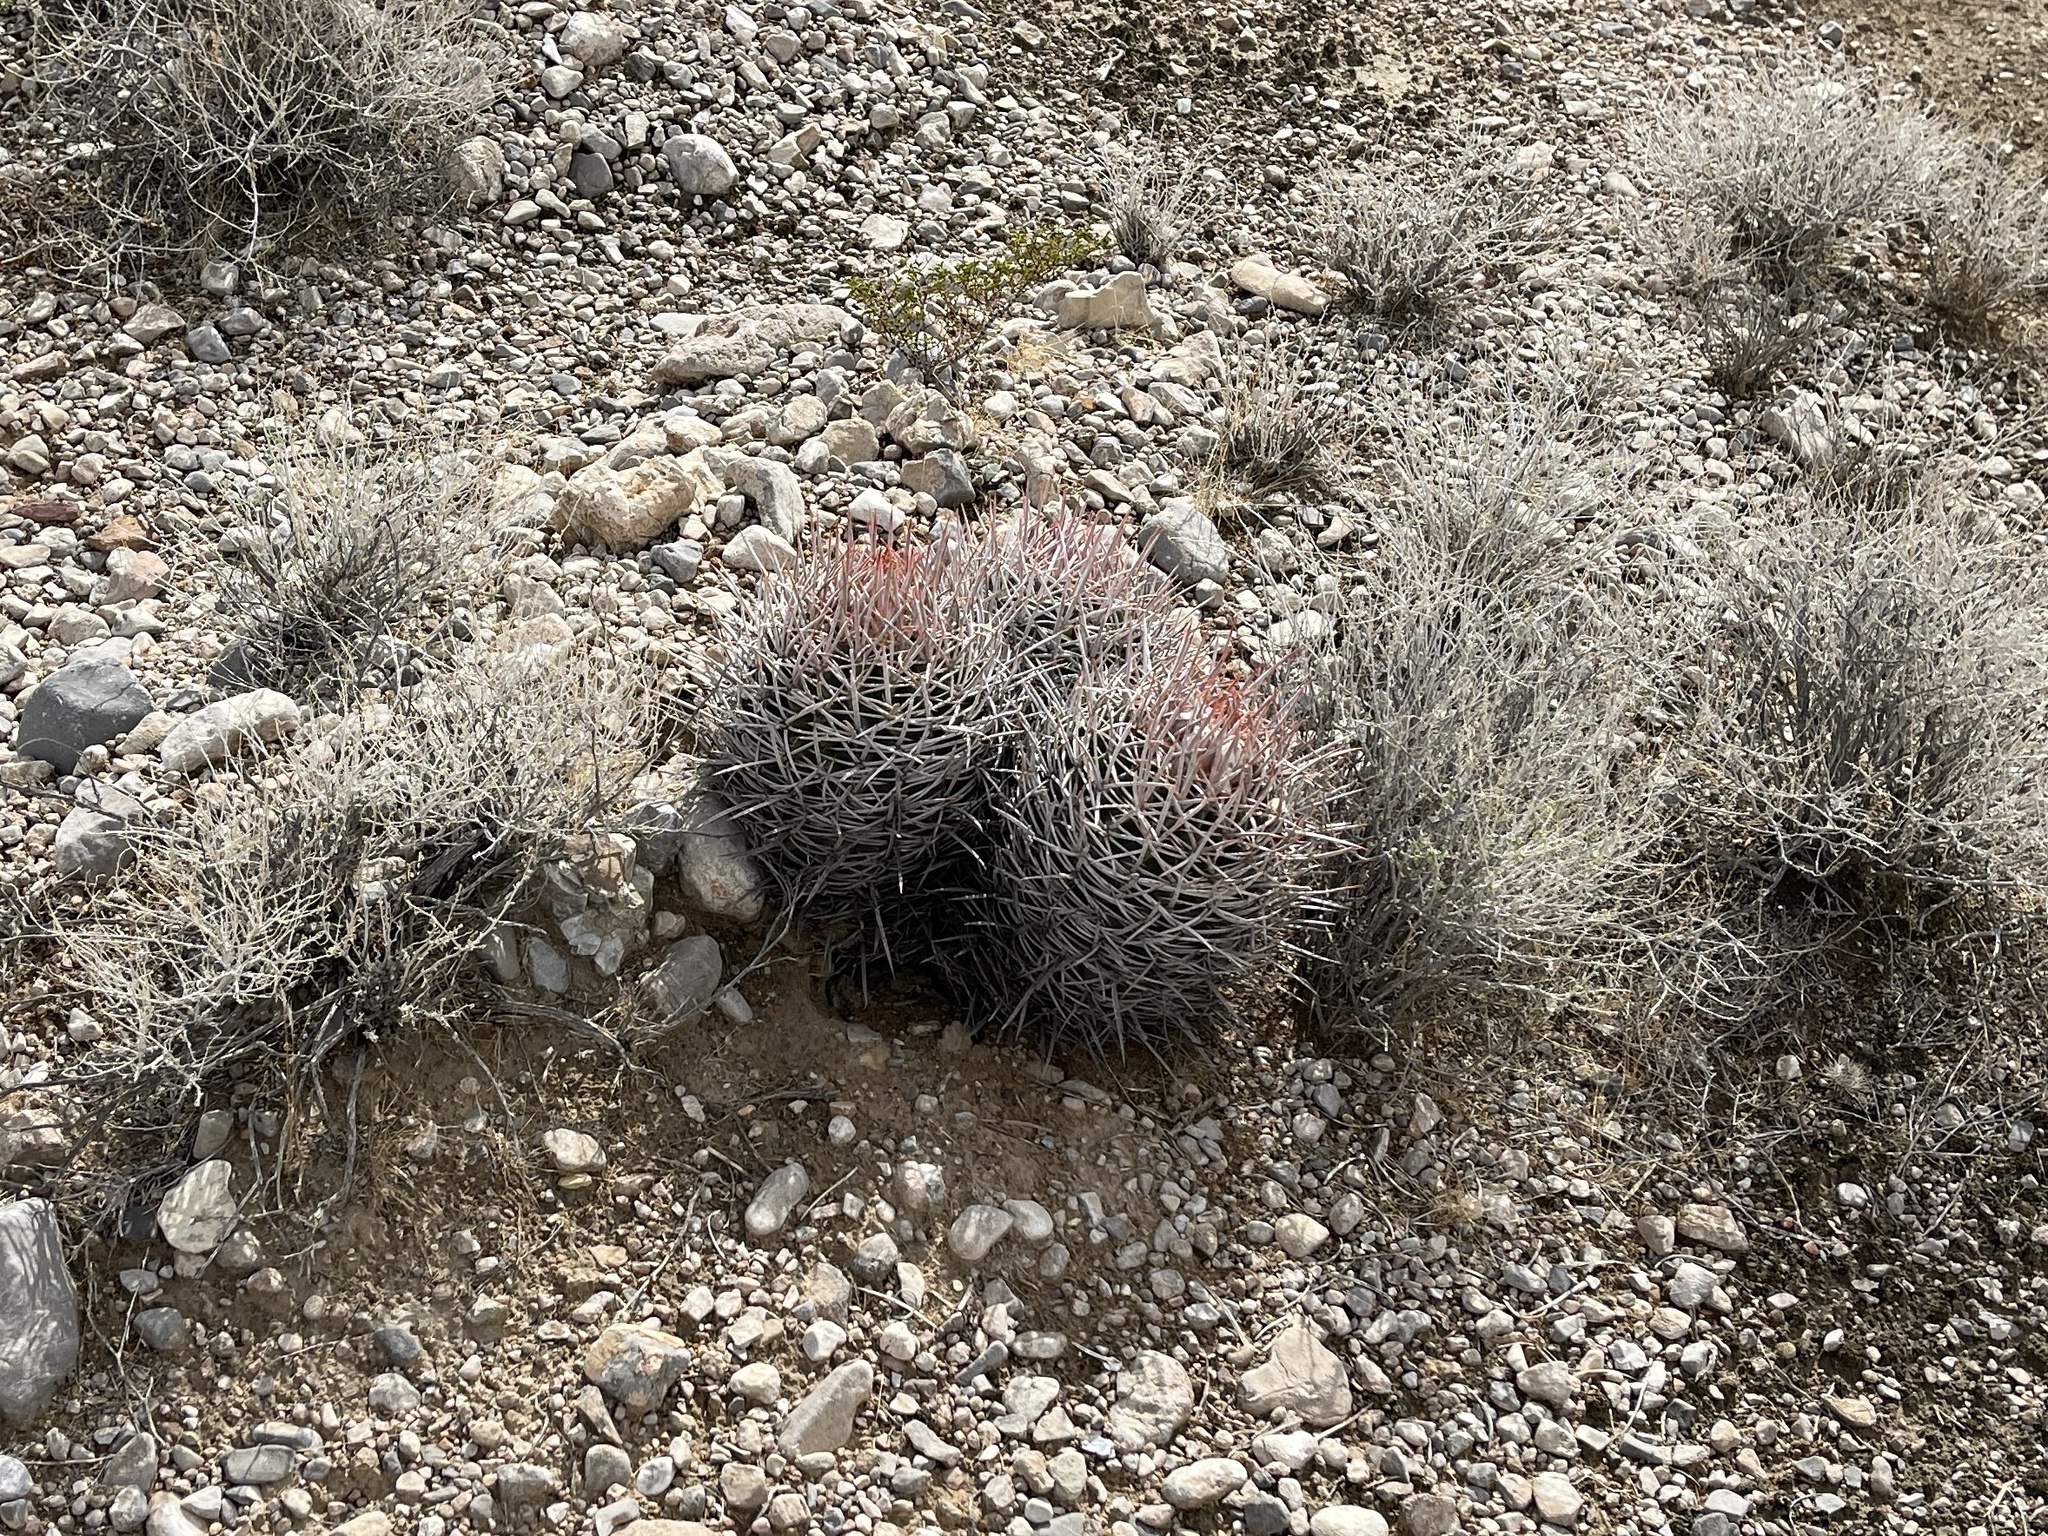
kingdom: Plantae
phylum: Tracheophyta
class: Magnoliopsida
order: Caryophyllales
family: Cactaceae
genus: Echinocactus
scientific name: Echinocactus polycephalus
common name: Cottontop cactus
